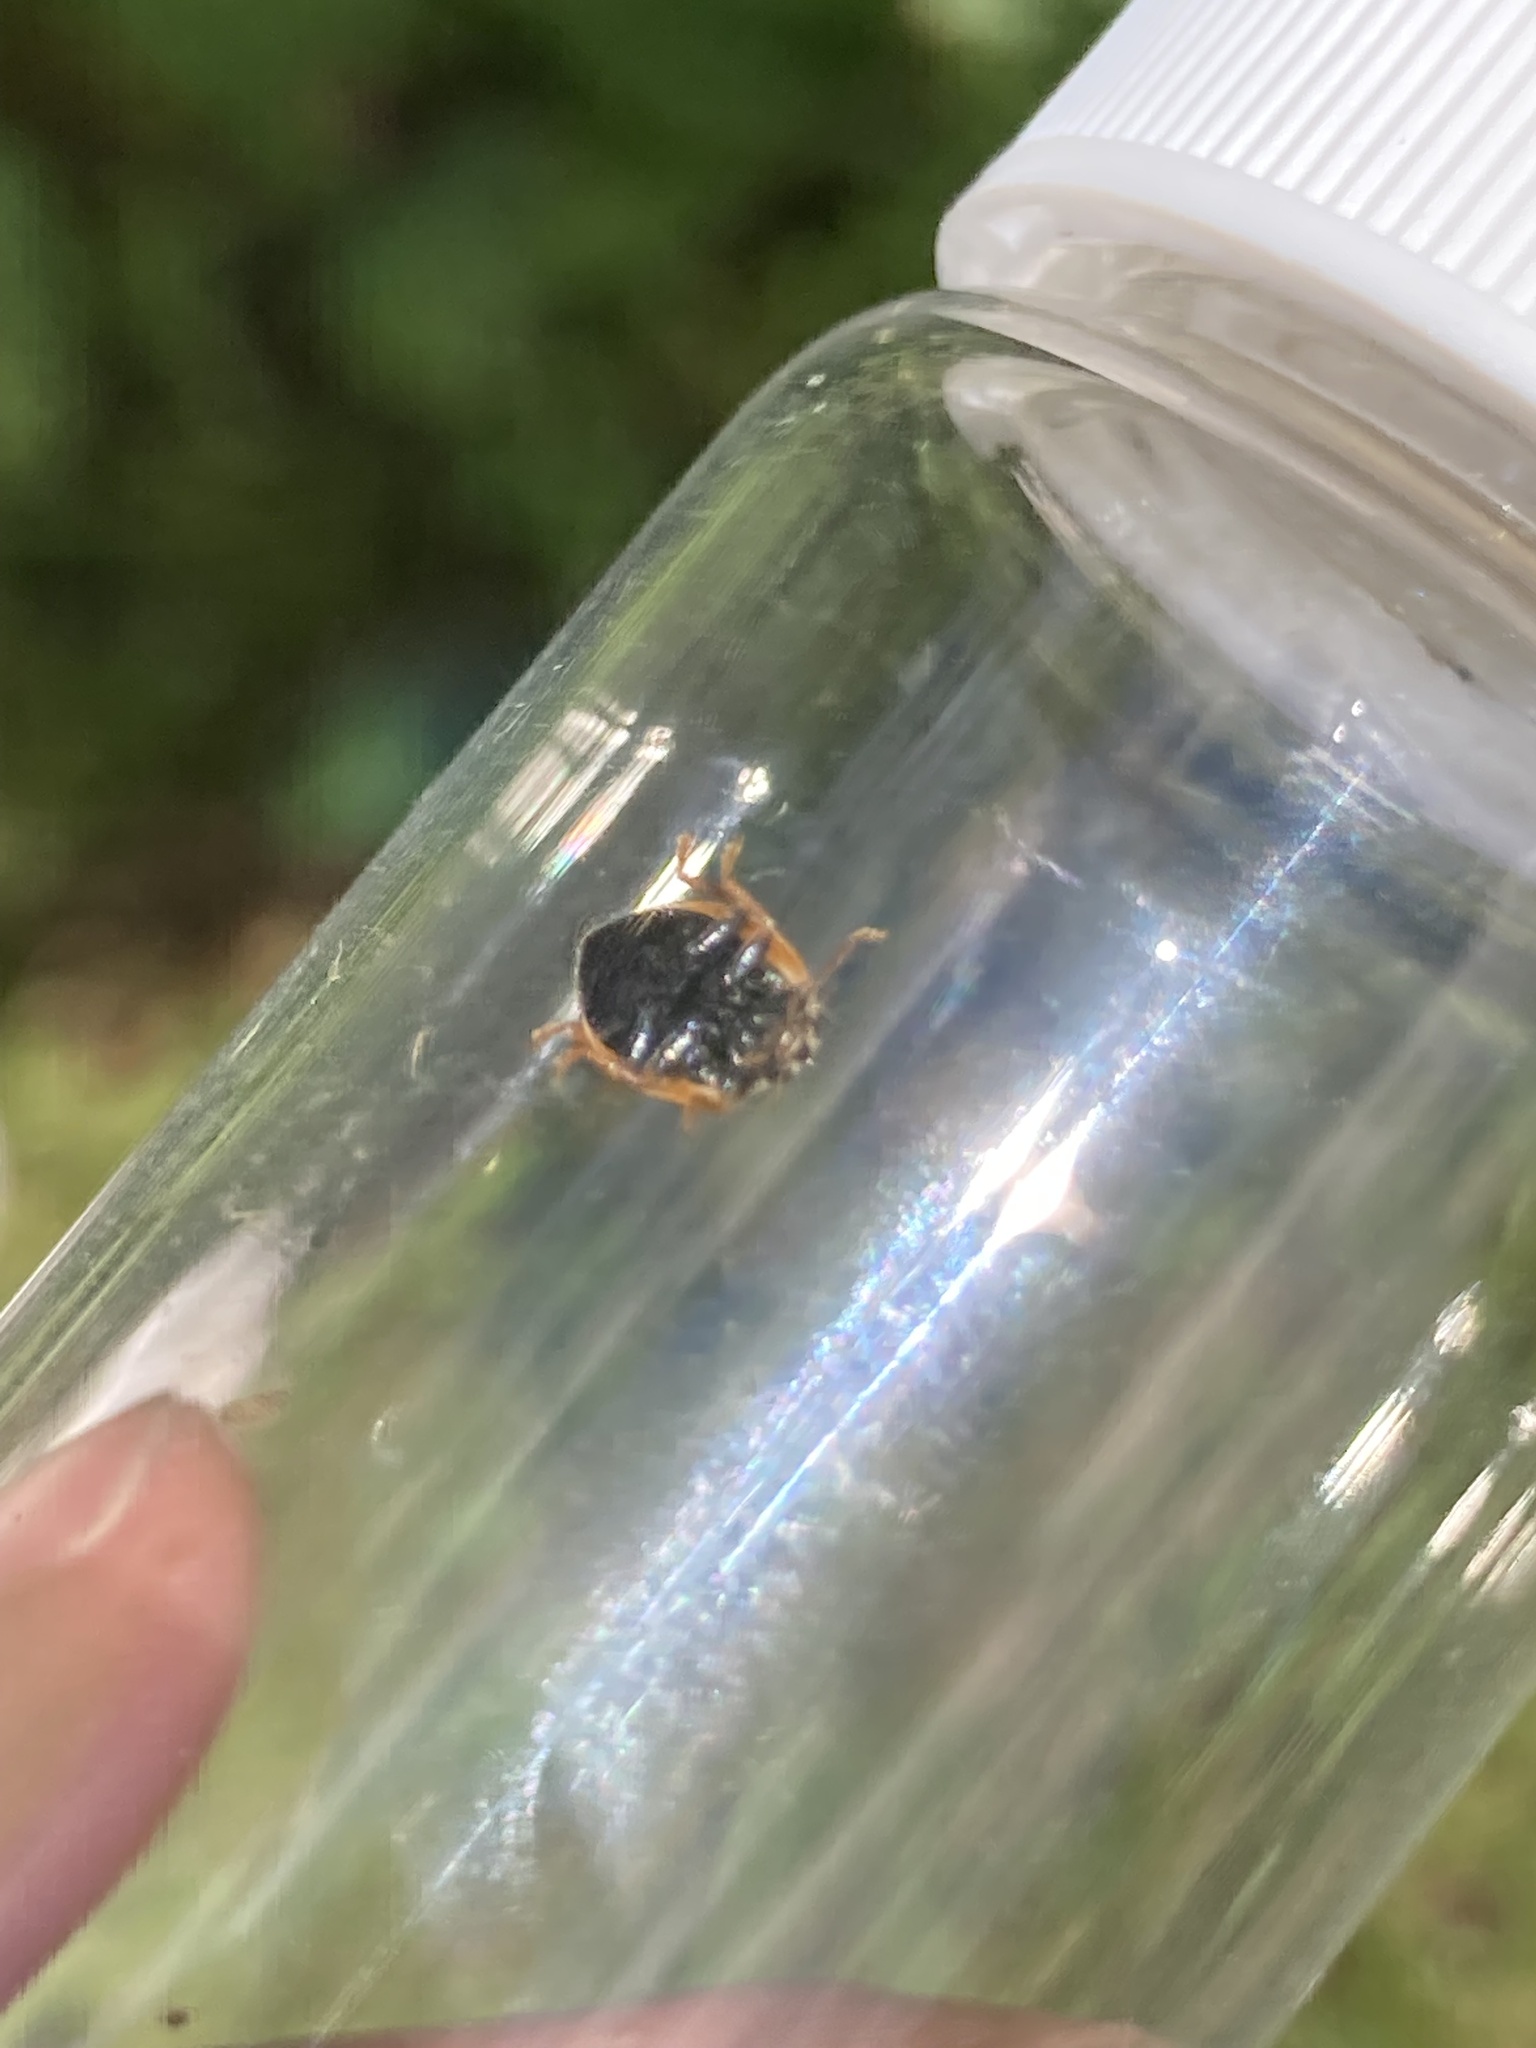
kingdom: Animalia
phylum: Arthropoda
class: Insecta
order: Coleoptera
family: Coccinellidae
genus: Cycloneda
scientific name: Cycloneda munda
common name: Polished lady beetle
